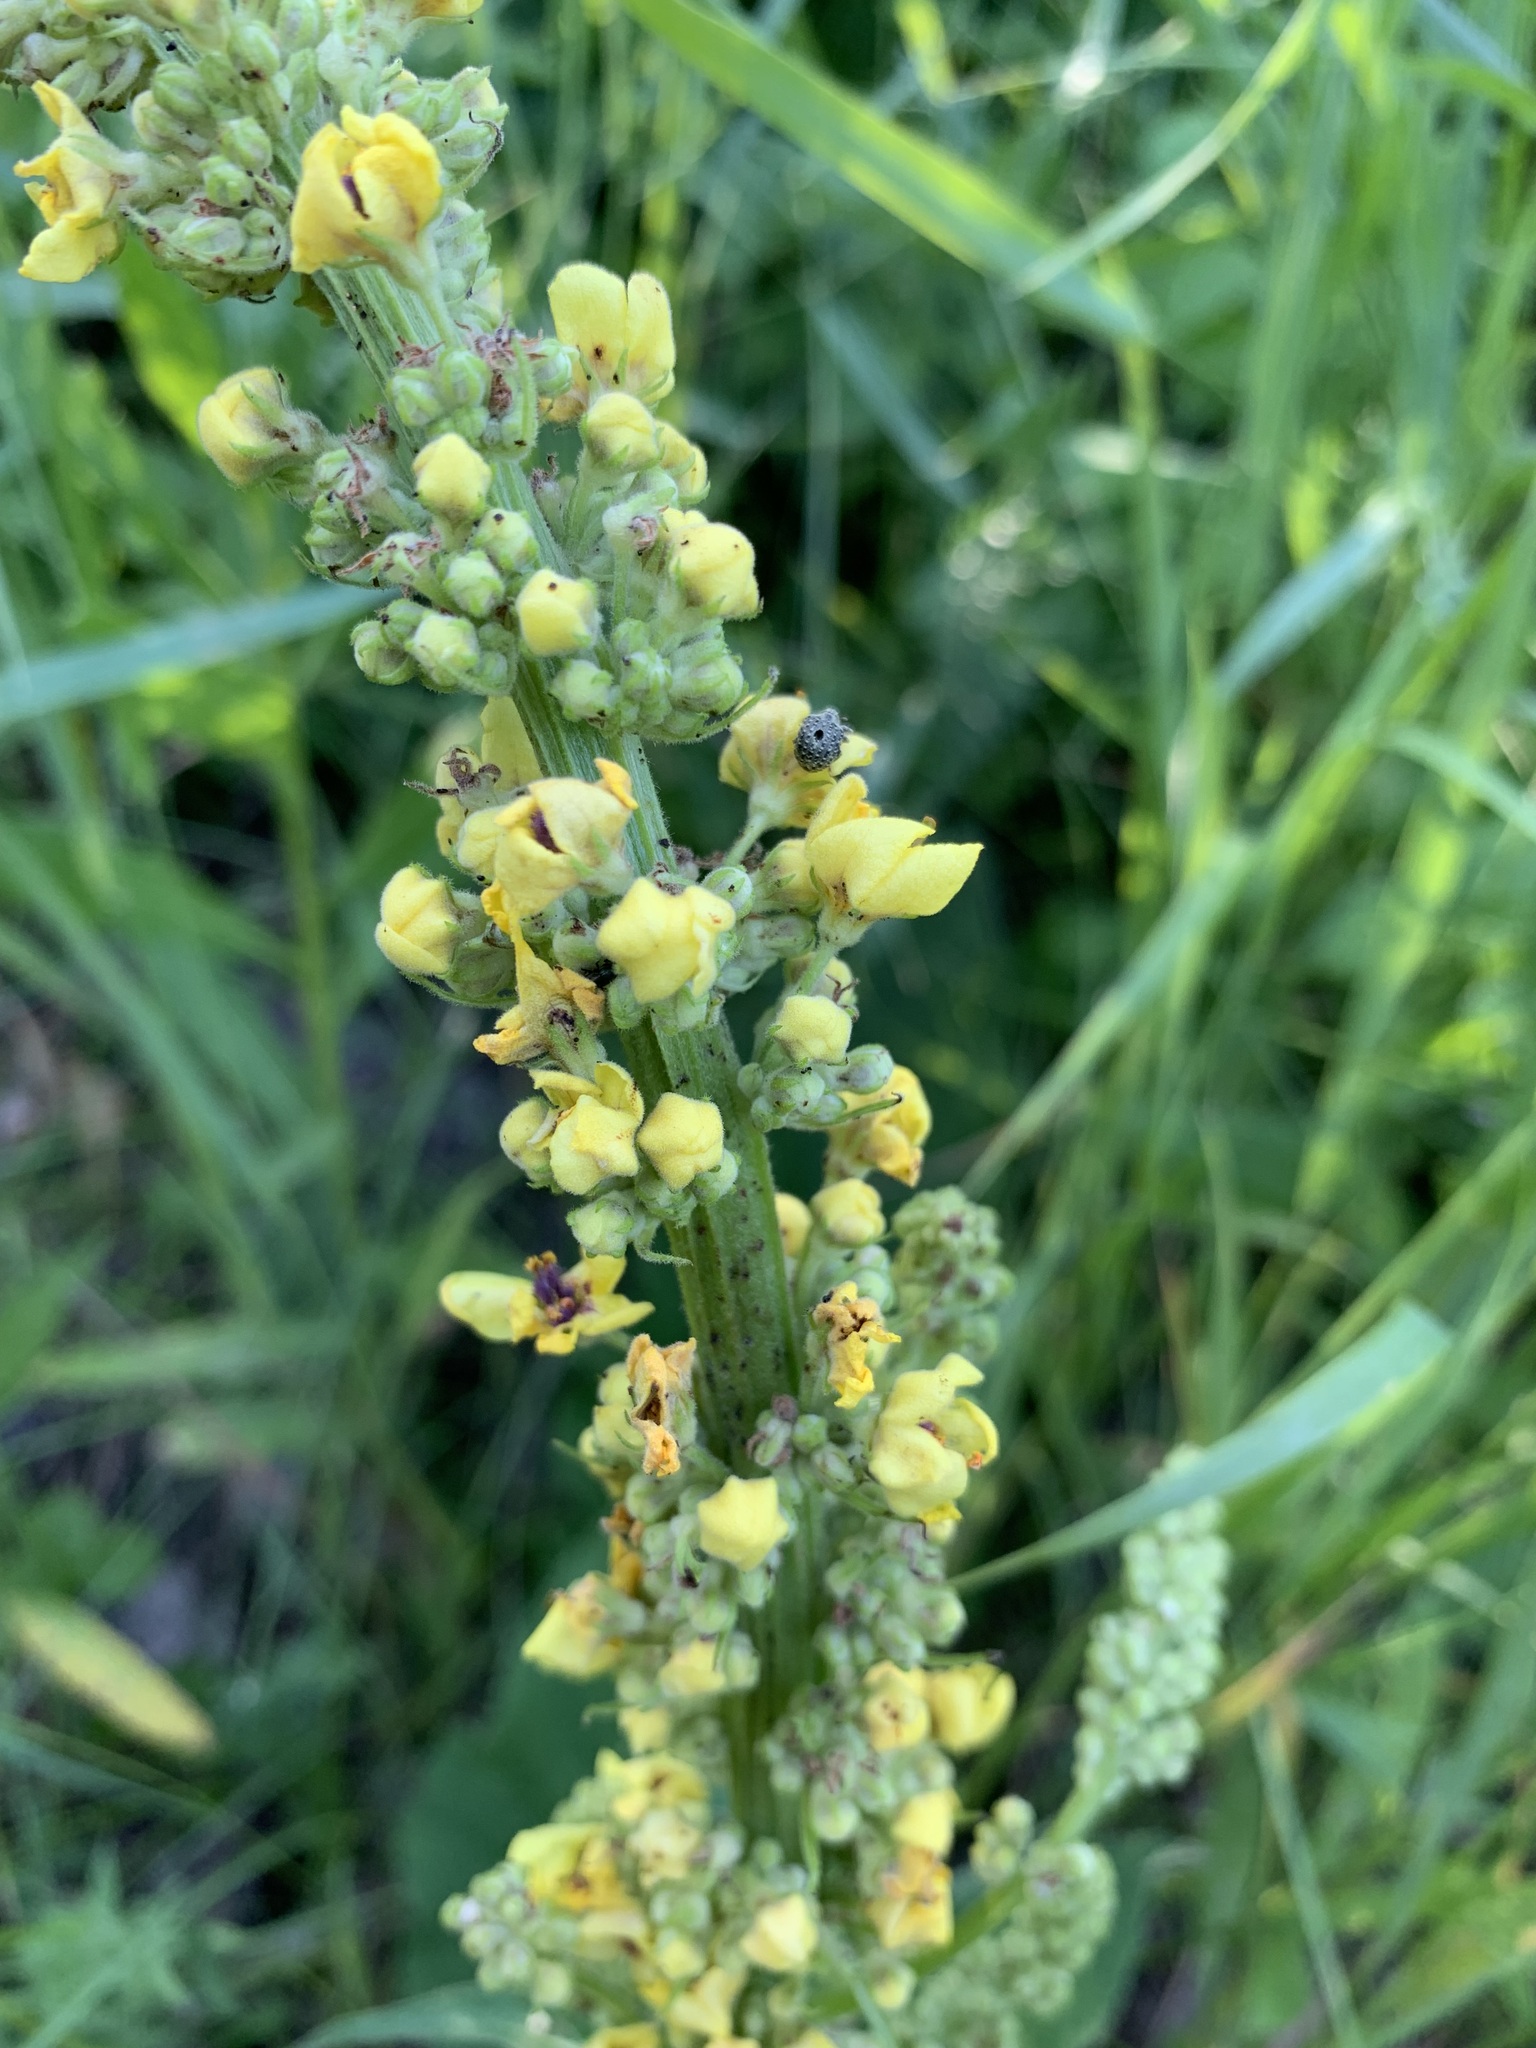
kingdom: Plantae
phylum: Tracheophyta
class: Magnoliopsida
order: Lamiales
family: Scrophulariaceae
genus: Verbascum
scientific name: Verbascum nigrum
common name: Dark mullein
